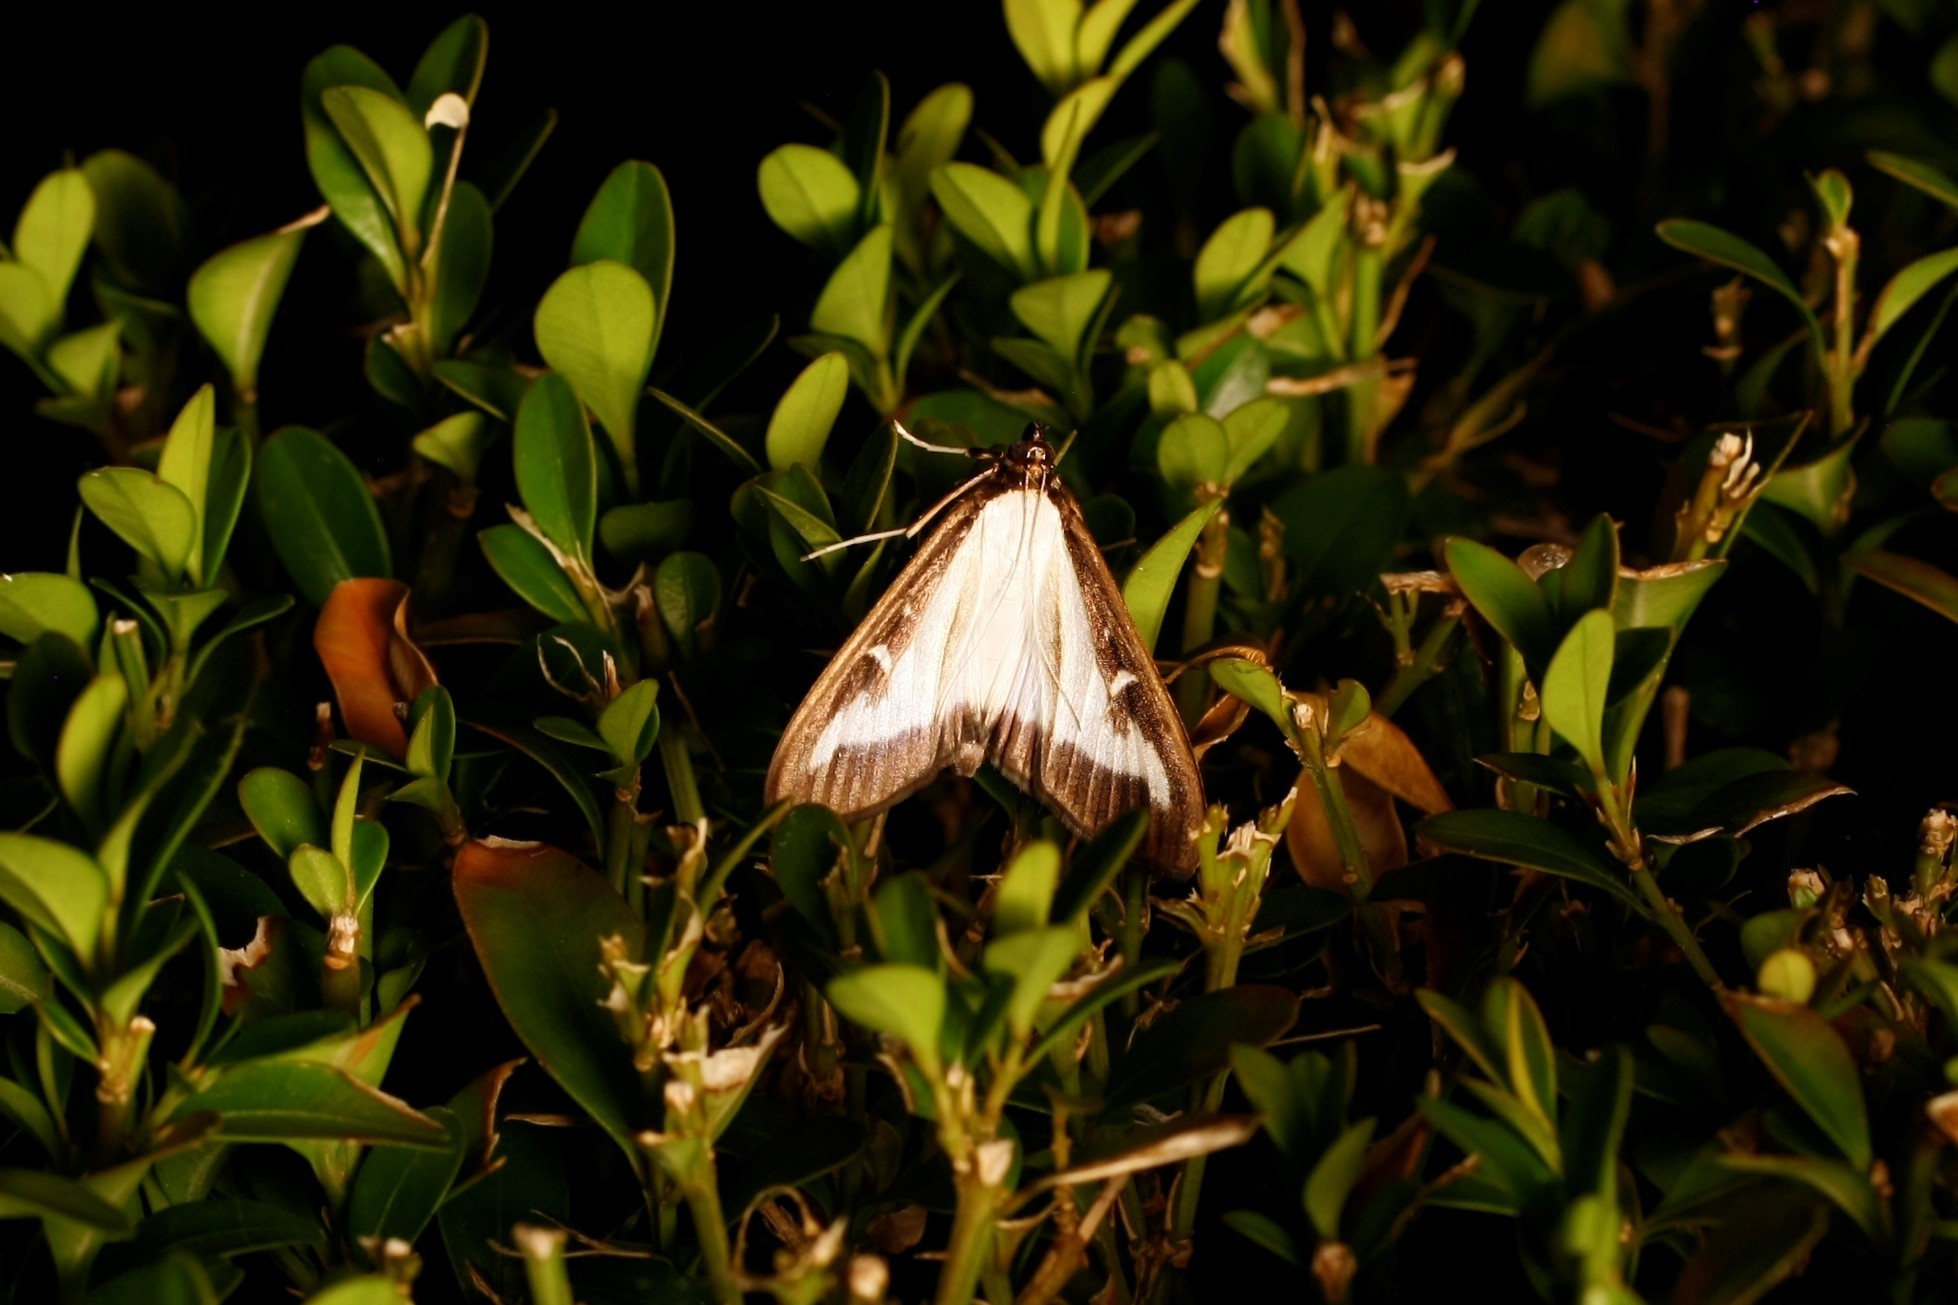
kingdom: Animalia
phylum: Arthropoda
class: Insecta
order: Lepidoptera
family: Crambidae
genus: Cydalima
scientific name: Cydalima perspectalis
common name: Box tree moth
